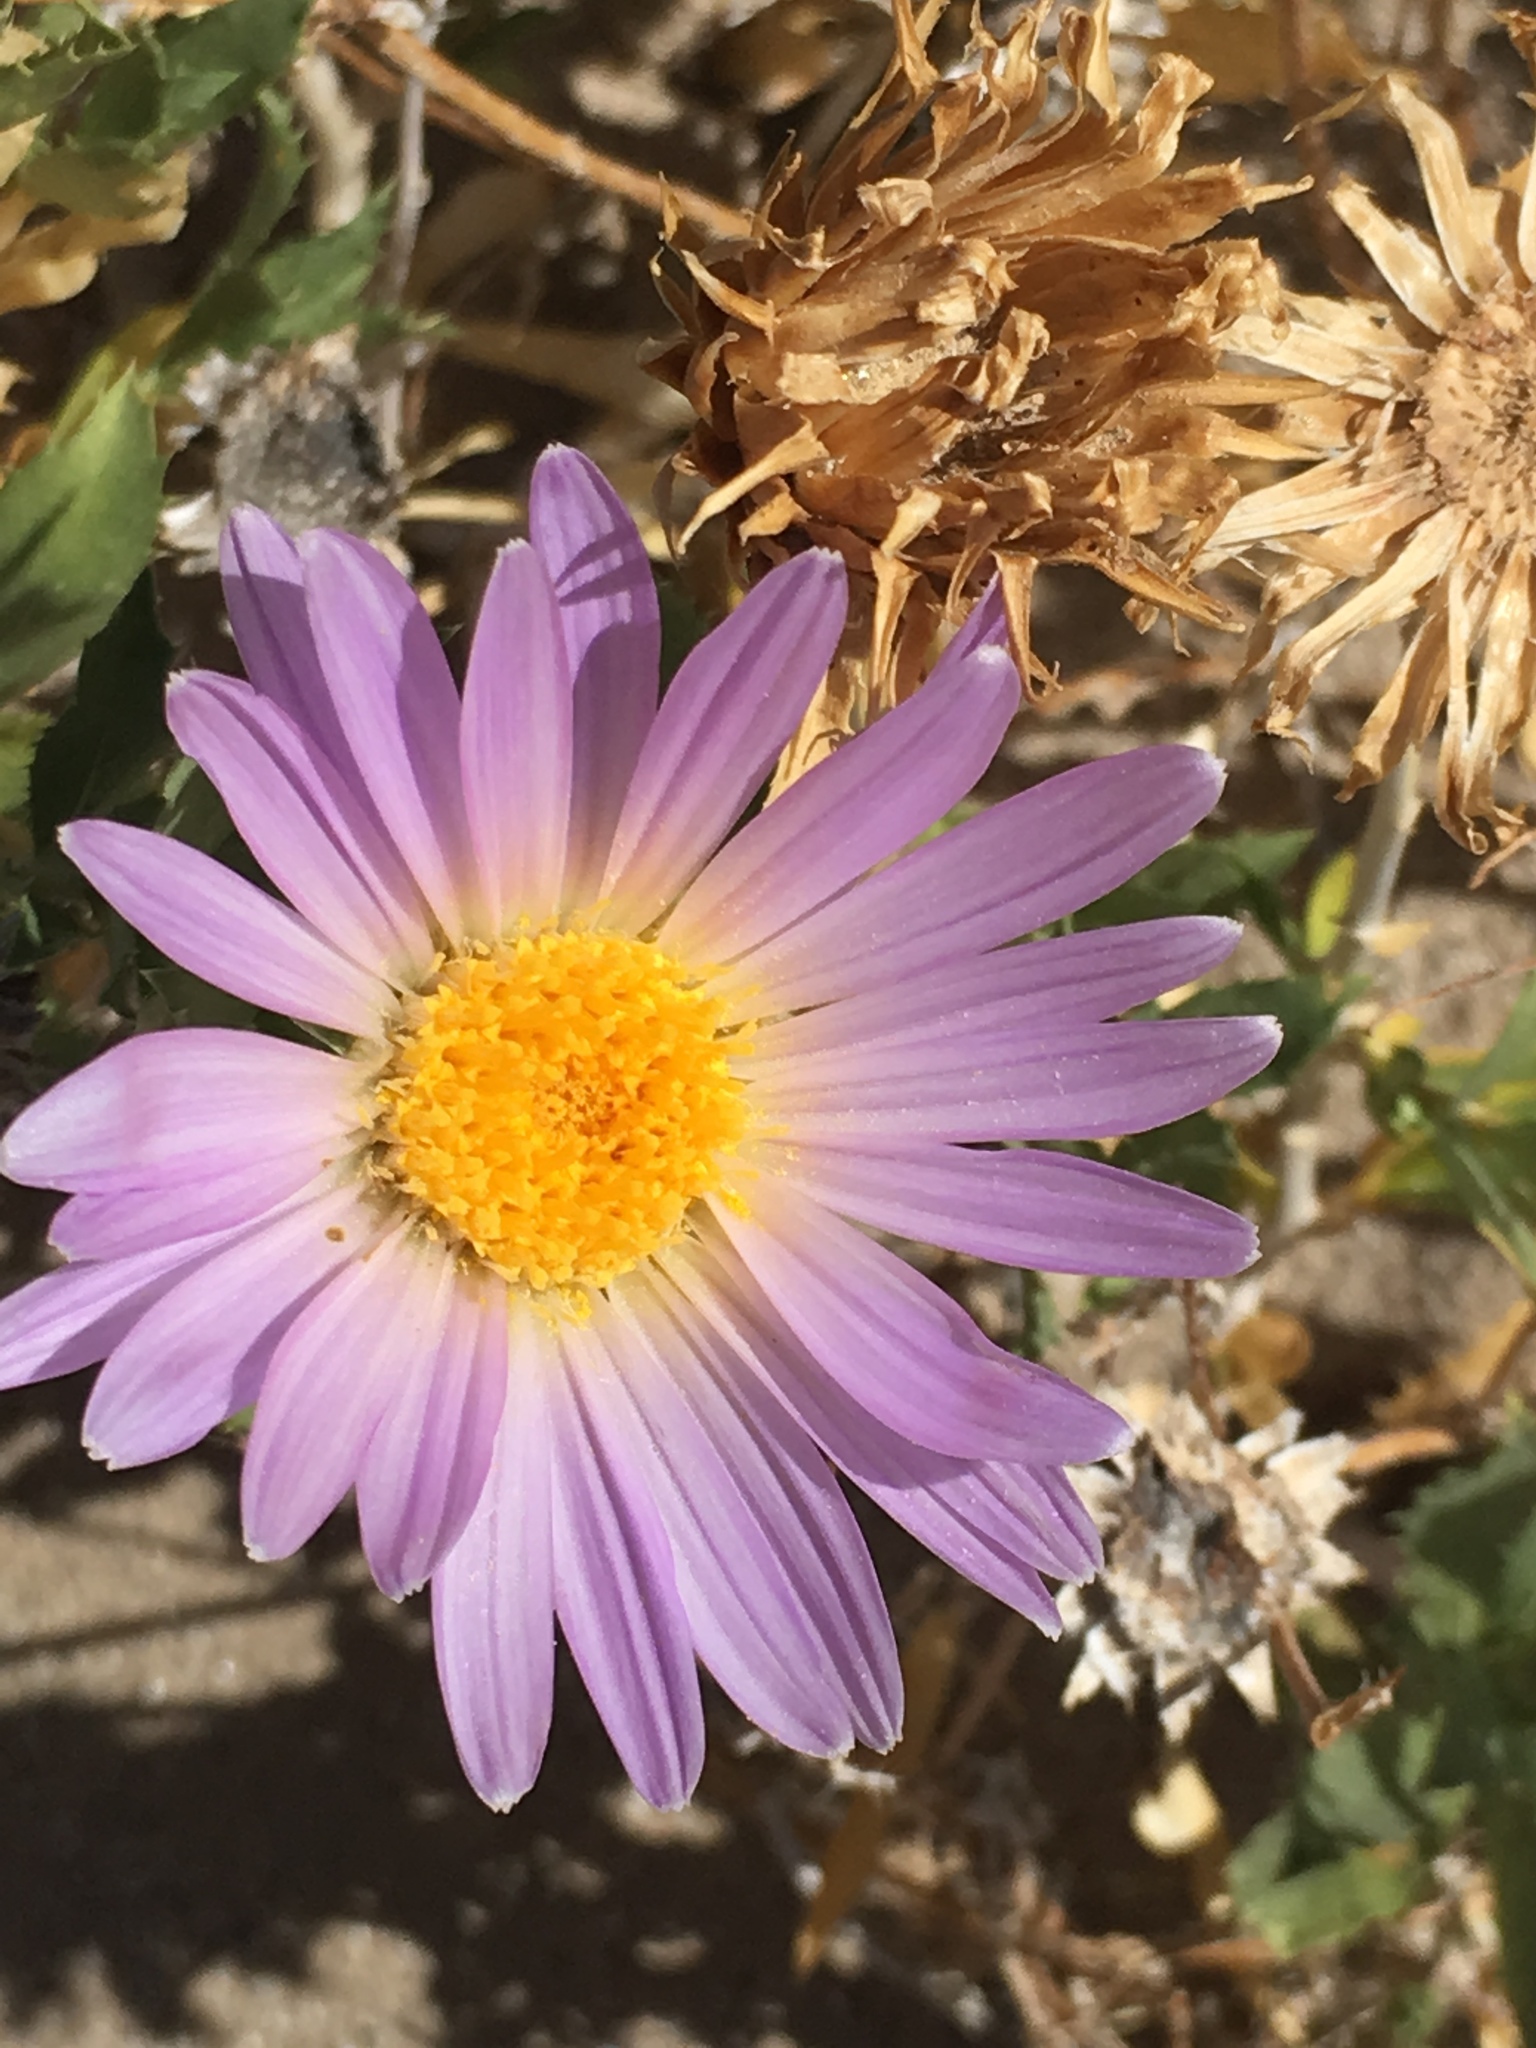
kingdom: Plantae
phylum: Tracheophyta
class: Magnoliopsida
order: Asterales
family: Asteraceae
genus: Xylorhiza
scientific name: Xylorhiza orcuttii
